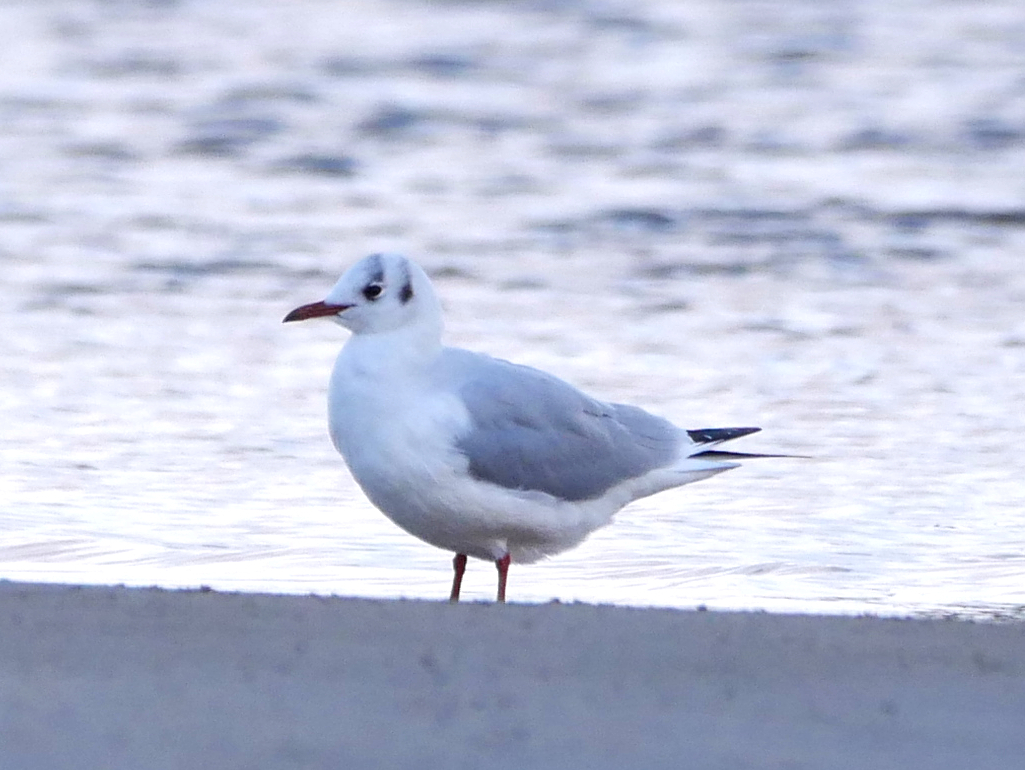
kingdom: Animalia
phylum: Chordata
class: Aves
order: Charadriiformes
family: Laridae
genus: Chroicocephalus
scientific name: Chroicocephalus ridibundus
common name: Black-headed gull
